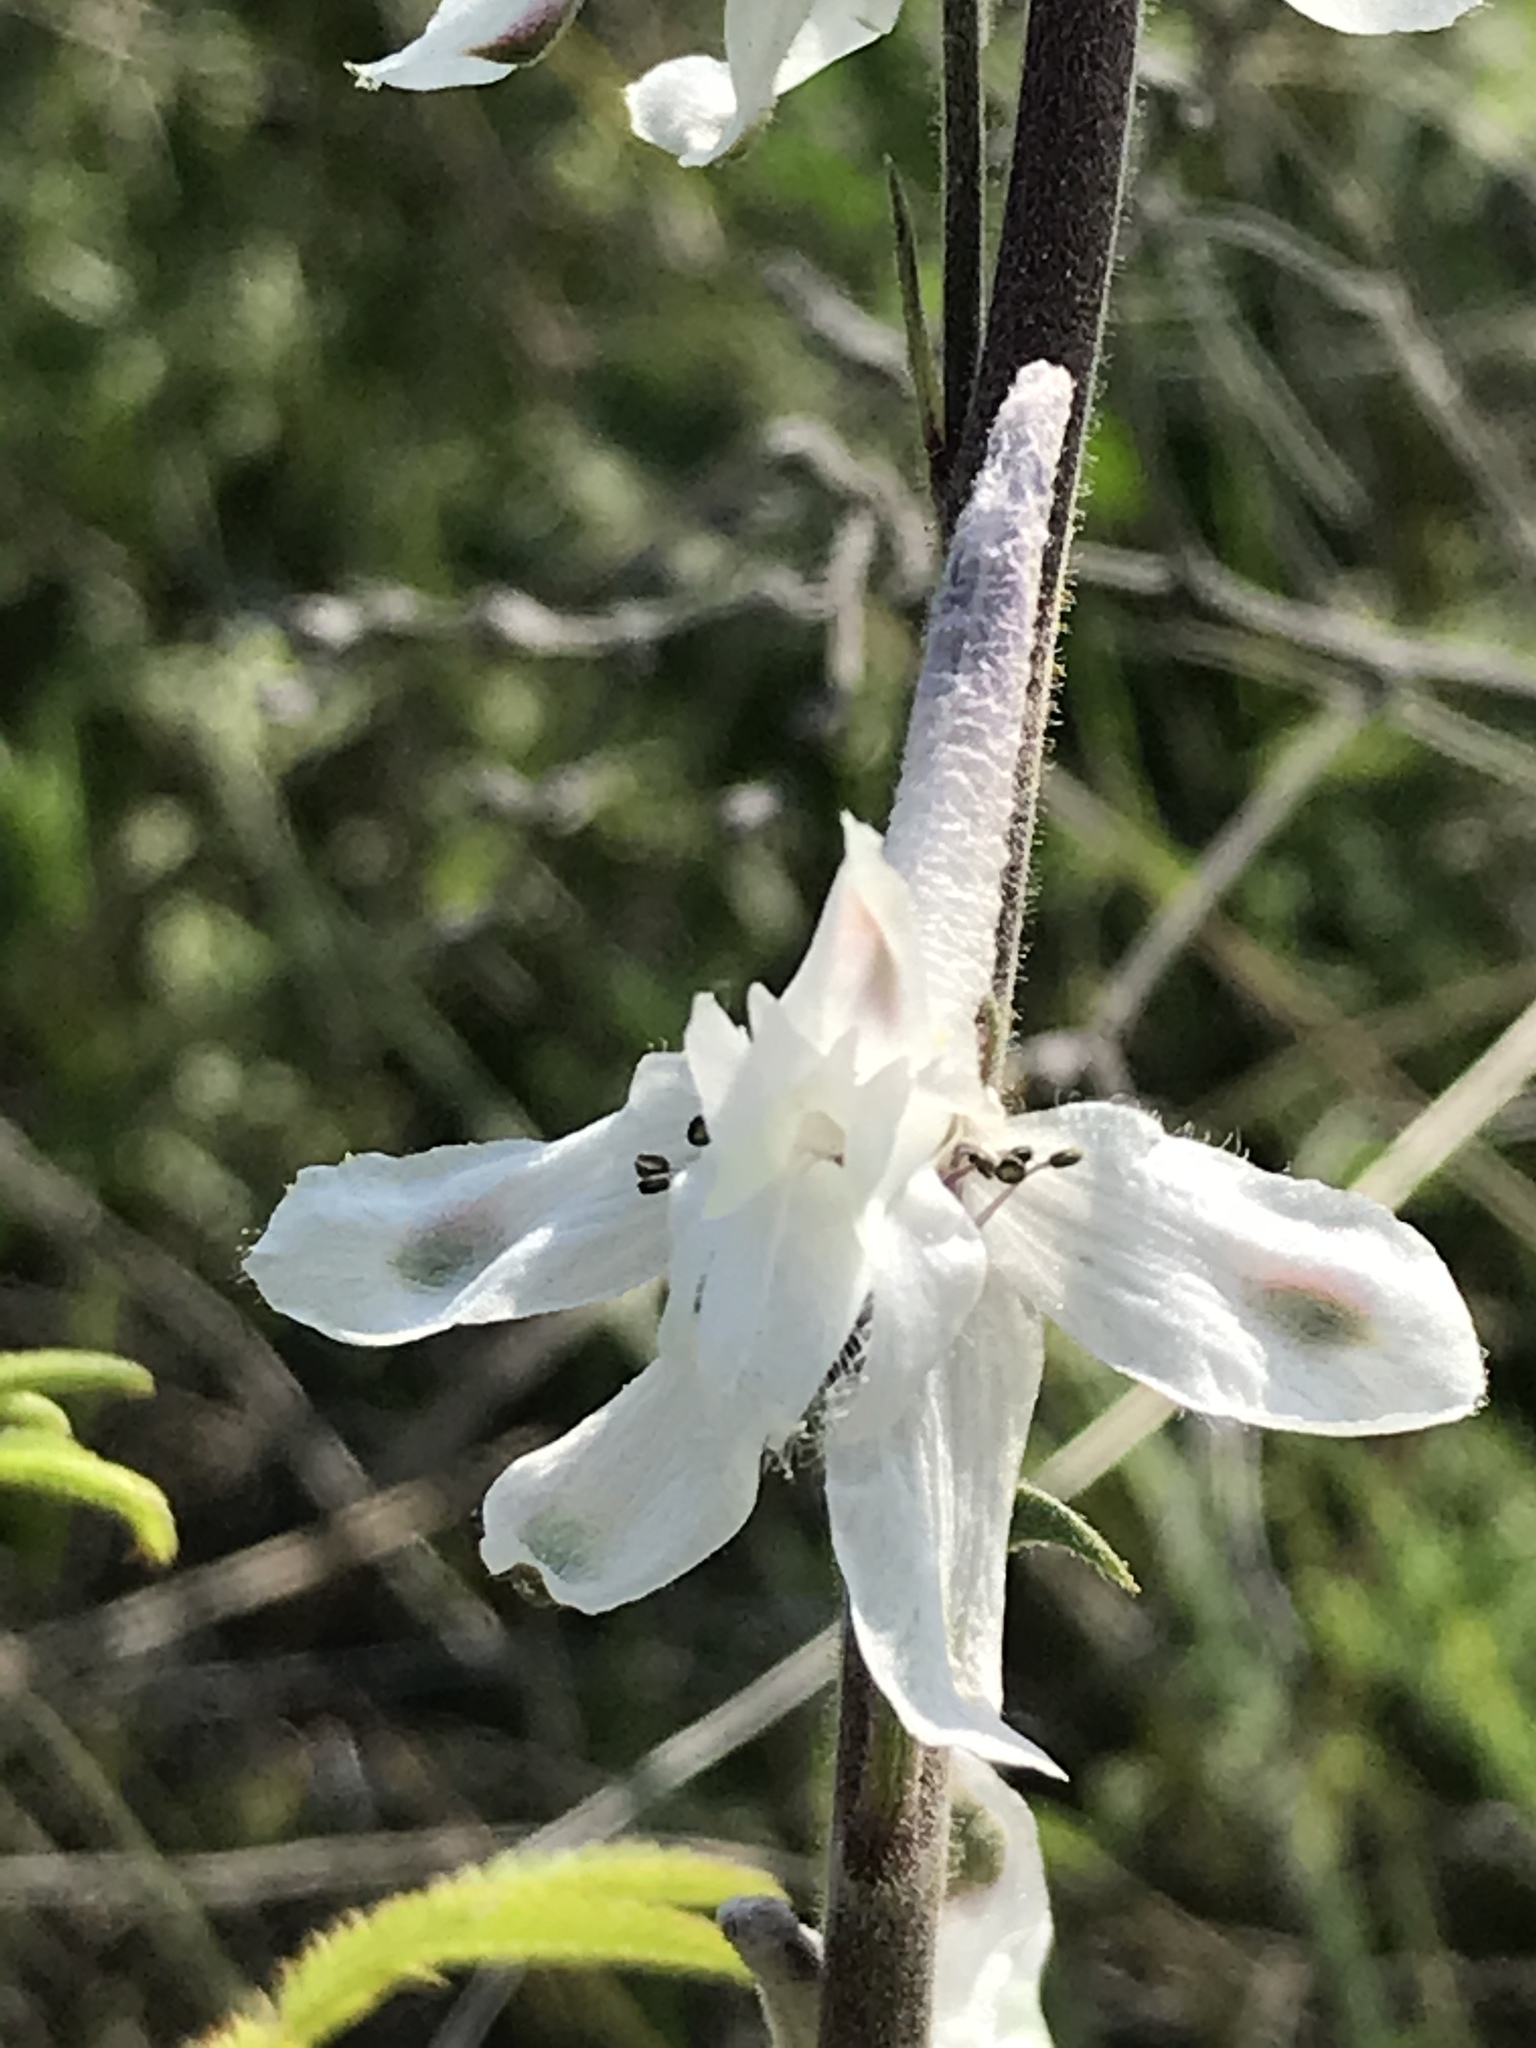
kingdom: Plantae
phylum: Tracheophyta
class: Magnoliopsida
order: Ranunculales
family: Ranunculaceae
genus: Delphinium
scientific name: Delphinium carolinianum
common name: Carolina larkspur
